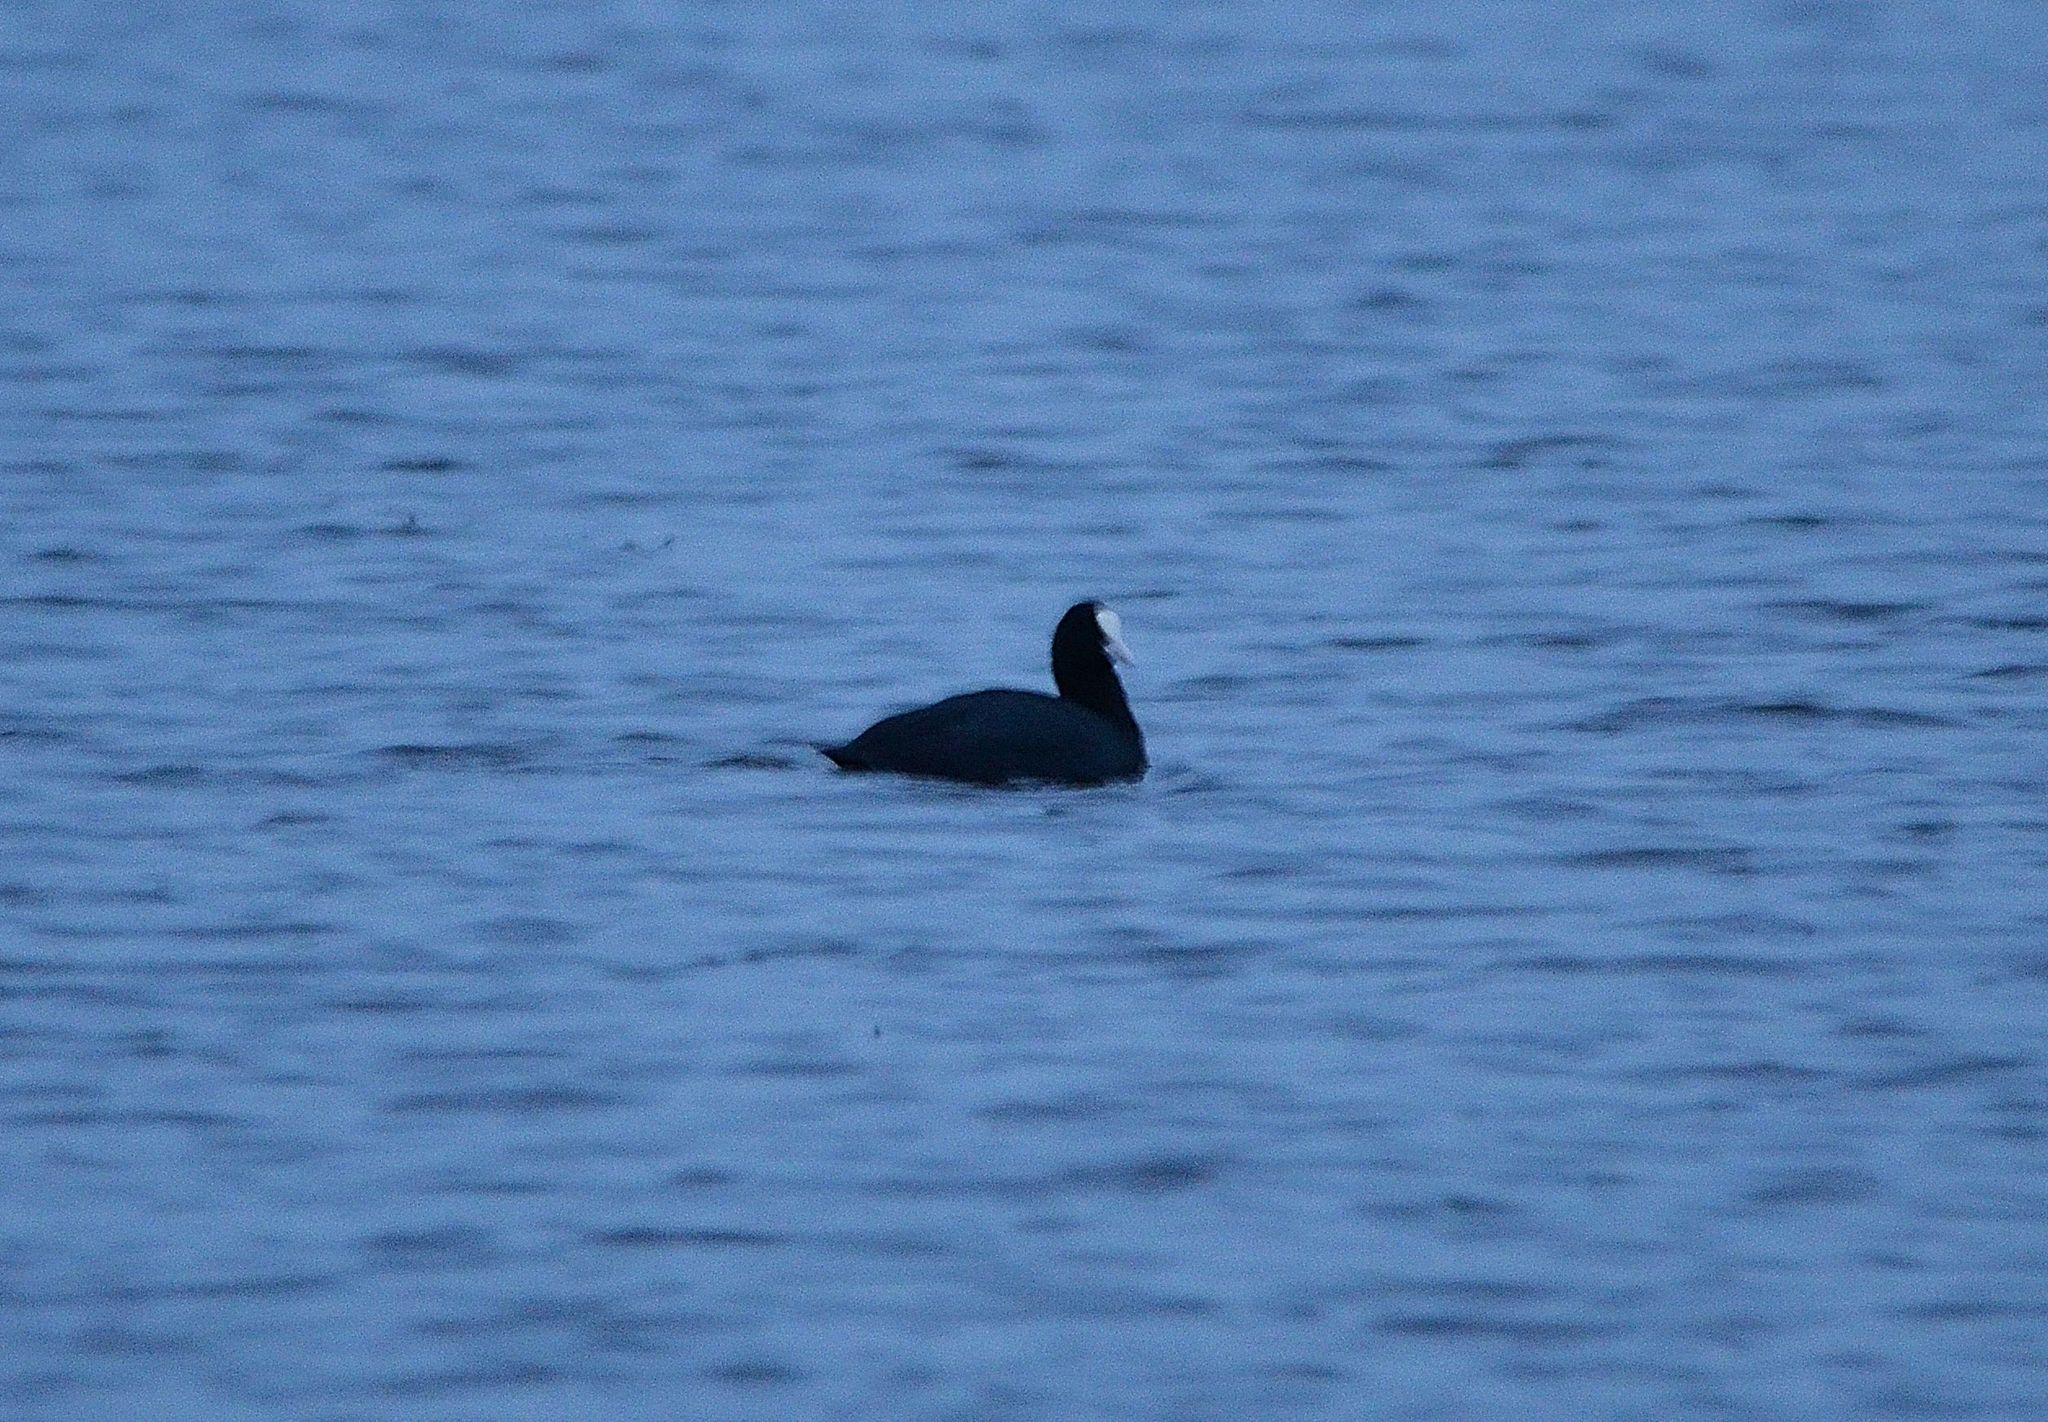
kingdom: Animalia
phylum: Chordata
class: Aves
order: Gruiformes
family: Rallidae
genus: Fulica
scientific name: Fulica atra
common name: Eurasian coot
